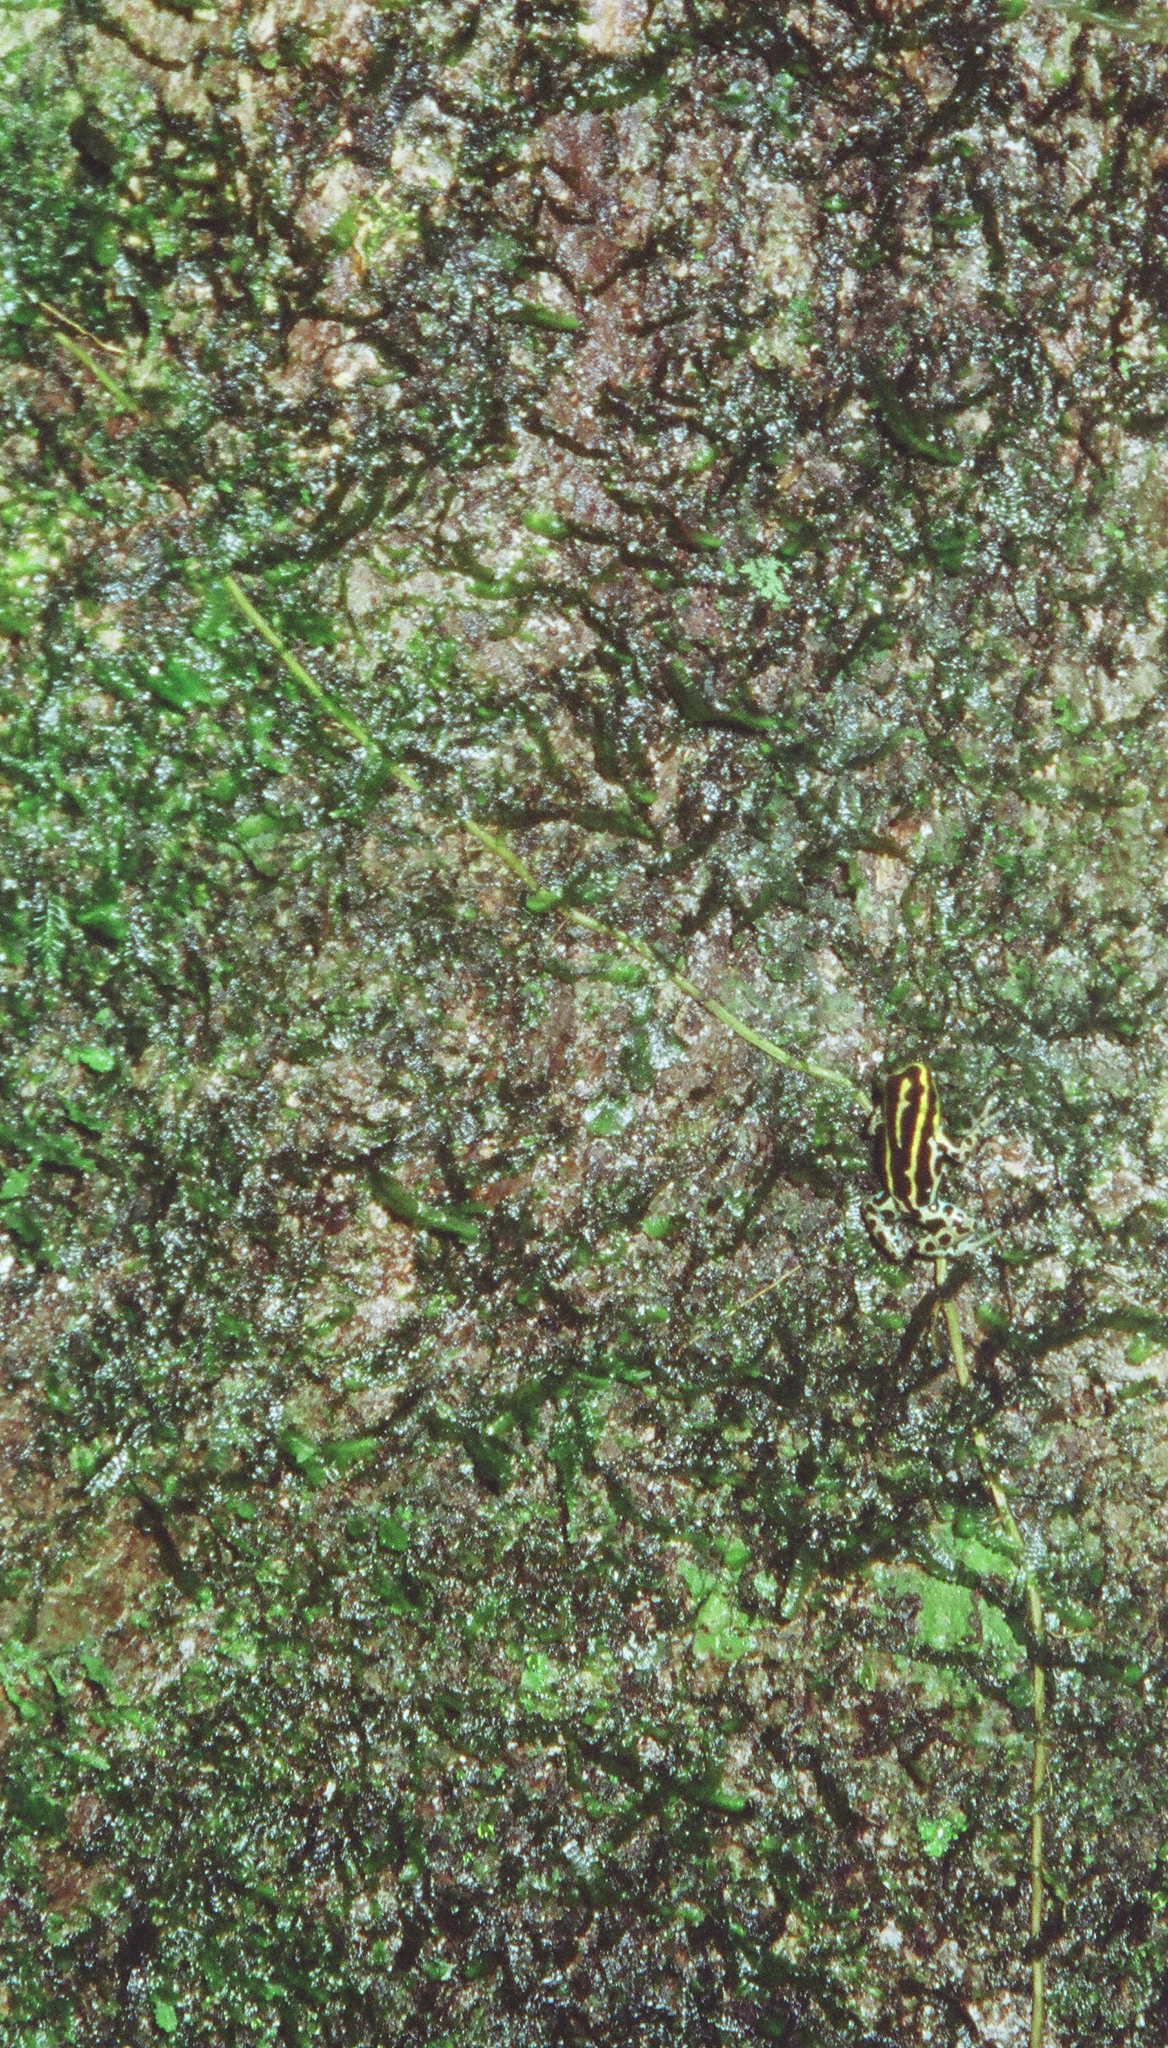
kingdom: Animalia
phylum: Chordata
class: Amphibia
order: Anura
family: Dendrobatidae
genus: Ranitomeya
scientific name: Ranitomeya variabilis
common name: Variable poison frog
